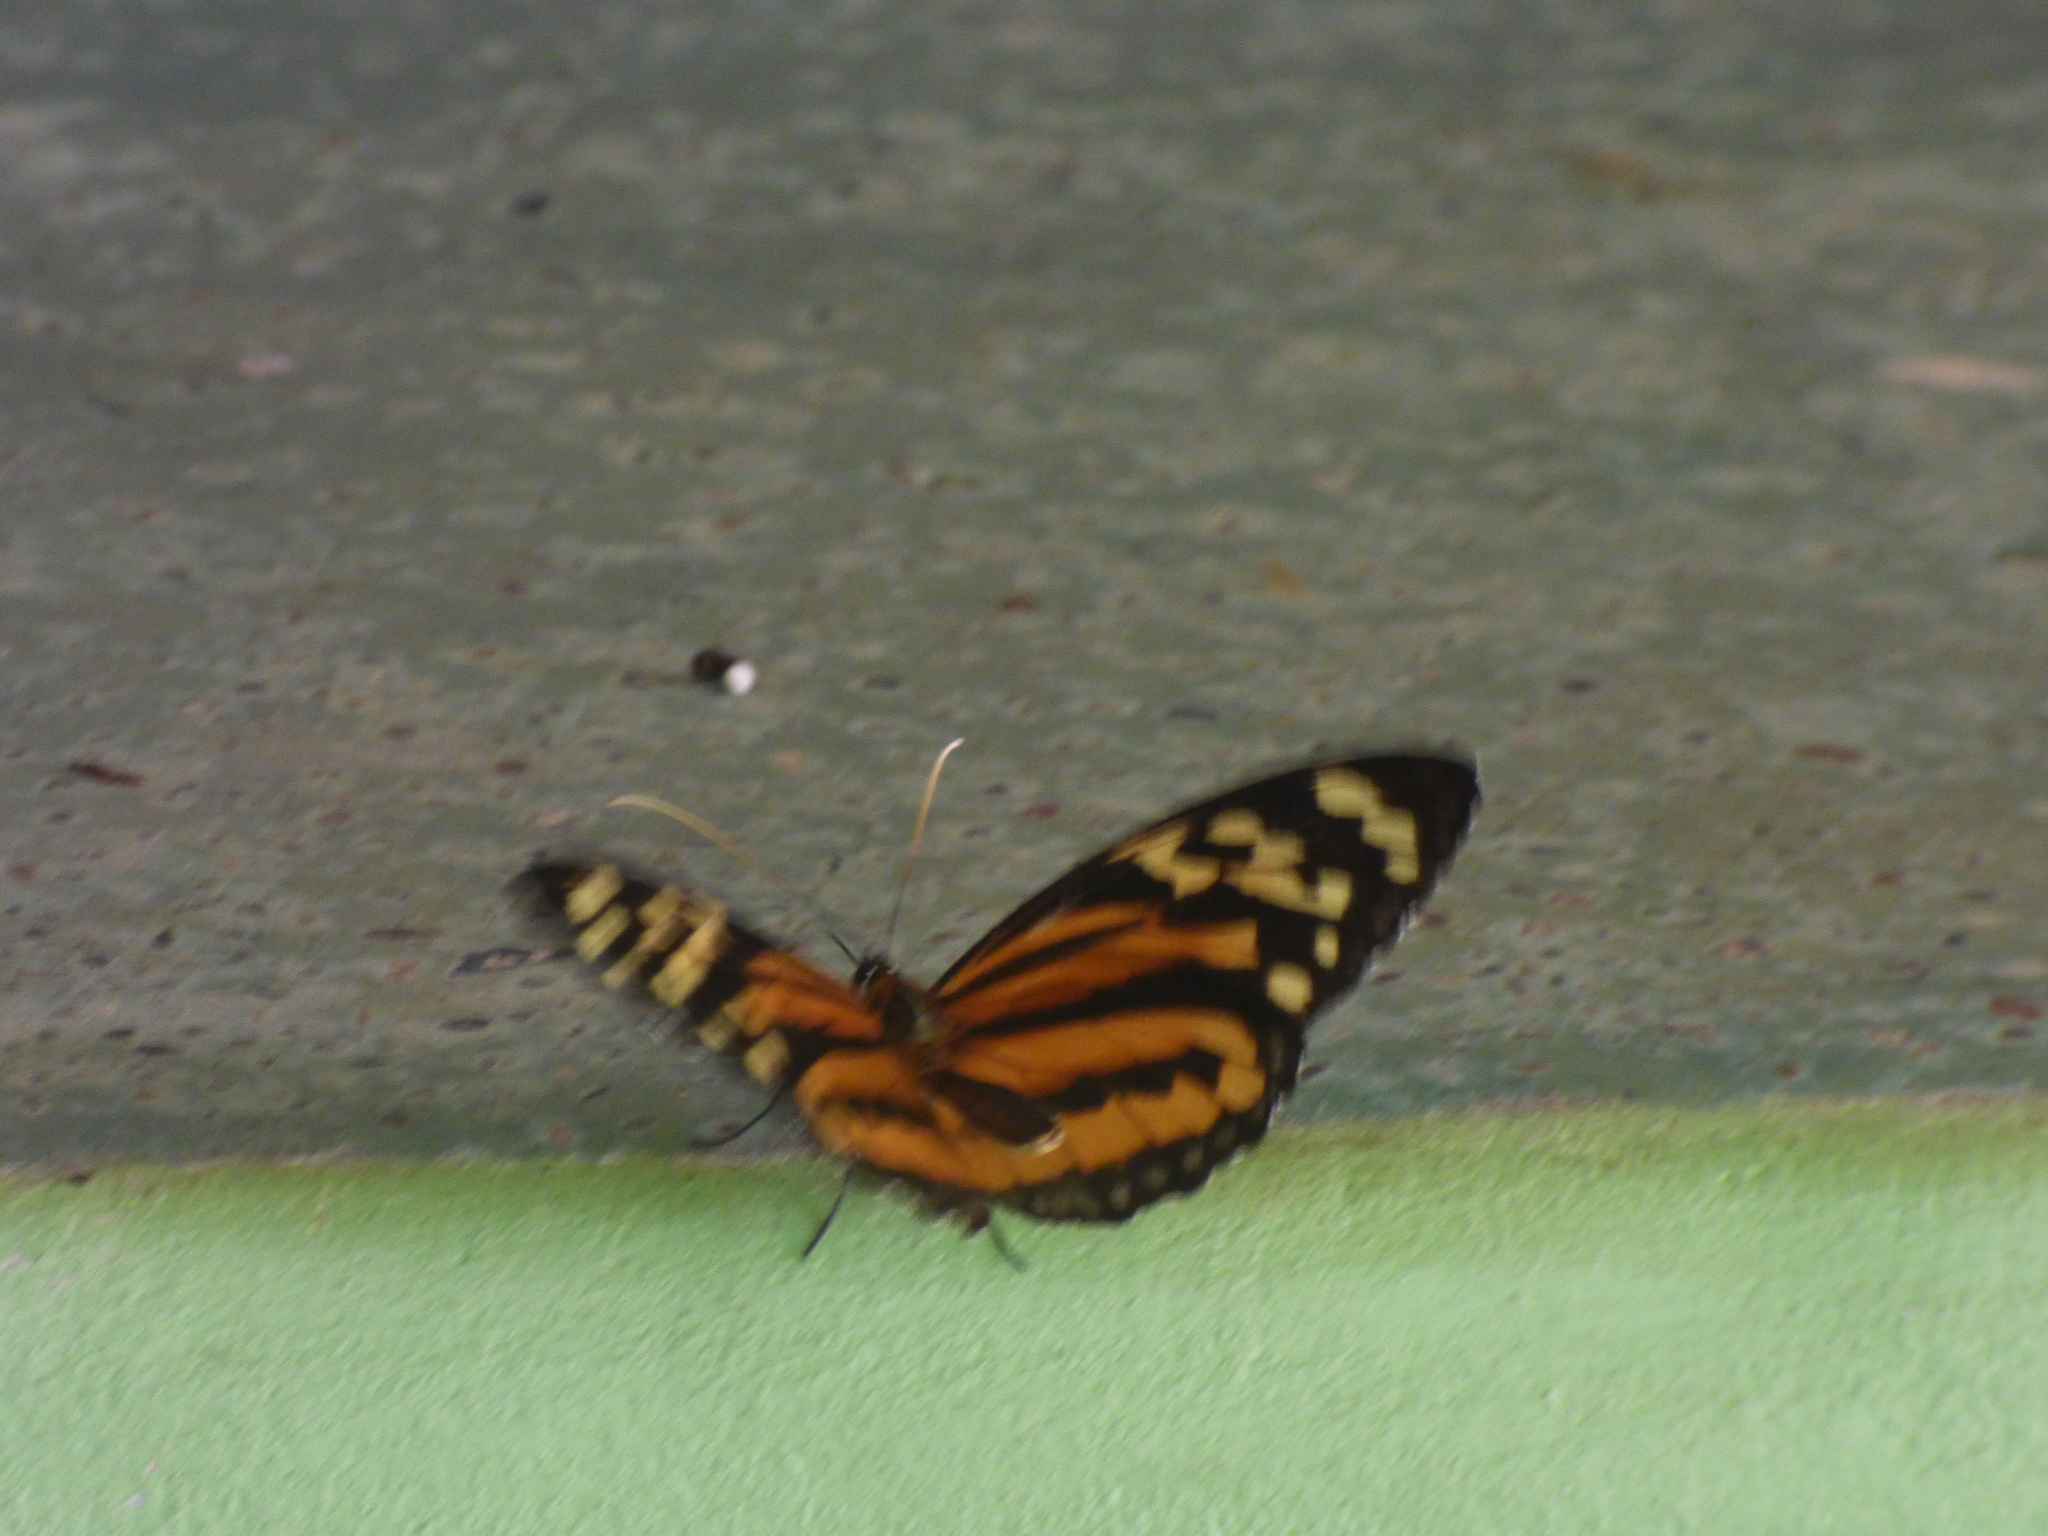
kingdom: Animalia
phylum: Arthropoda
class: Insecta
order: Lepidoptera
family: Nymphalidae
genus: Tithorea
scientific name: Tithorea harmonia
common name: Harmonia tigerwing
